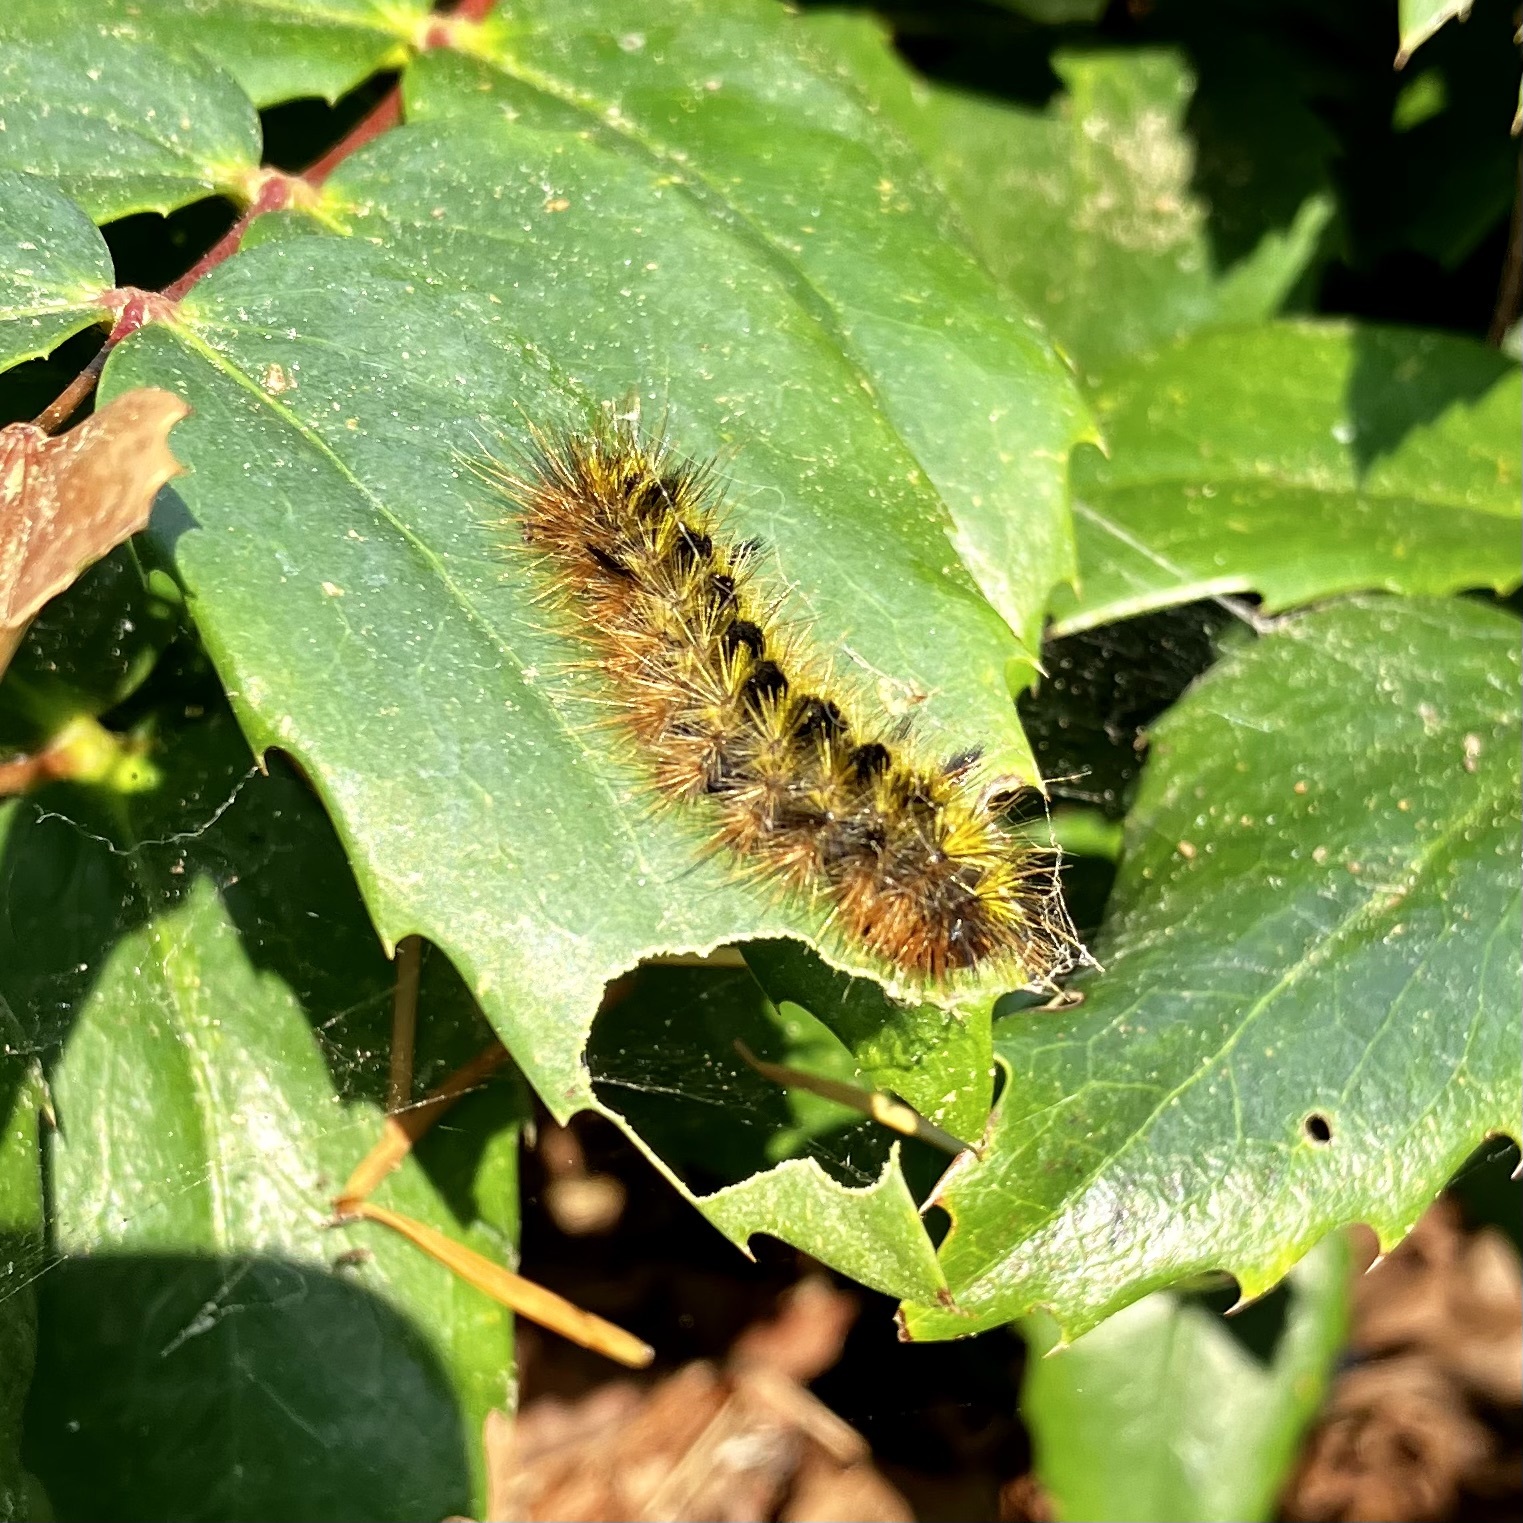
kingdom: Animalia
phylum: Arthropoda
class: Insecta
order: Lepidoptera
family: Erebidae
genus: Lophocampa
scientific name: Lophocampa argentata
